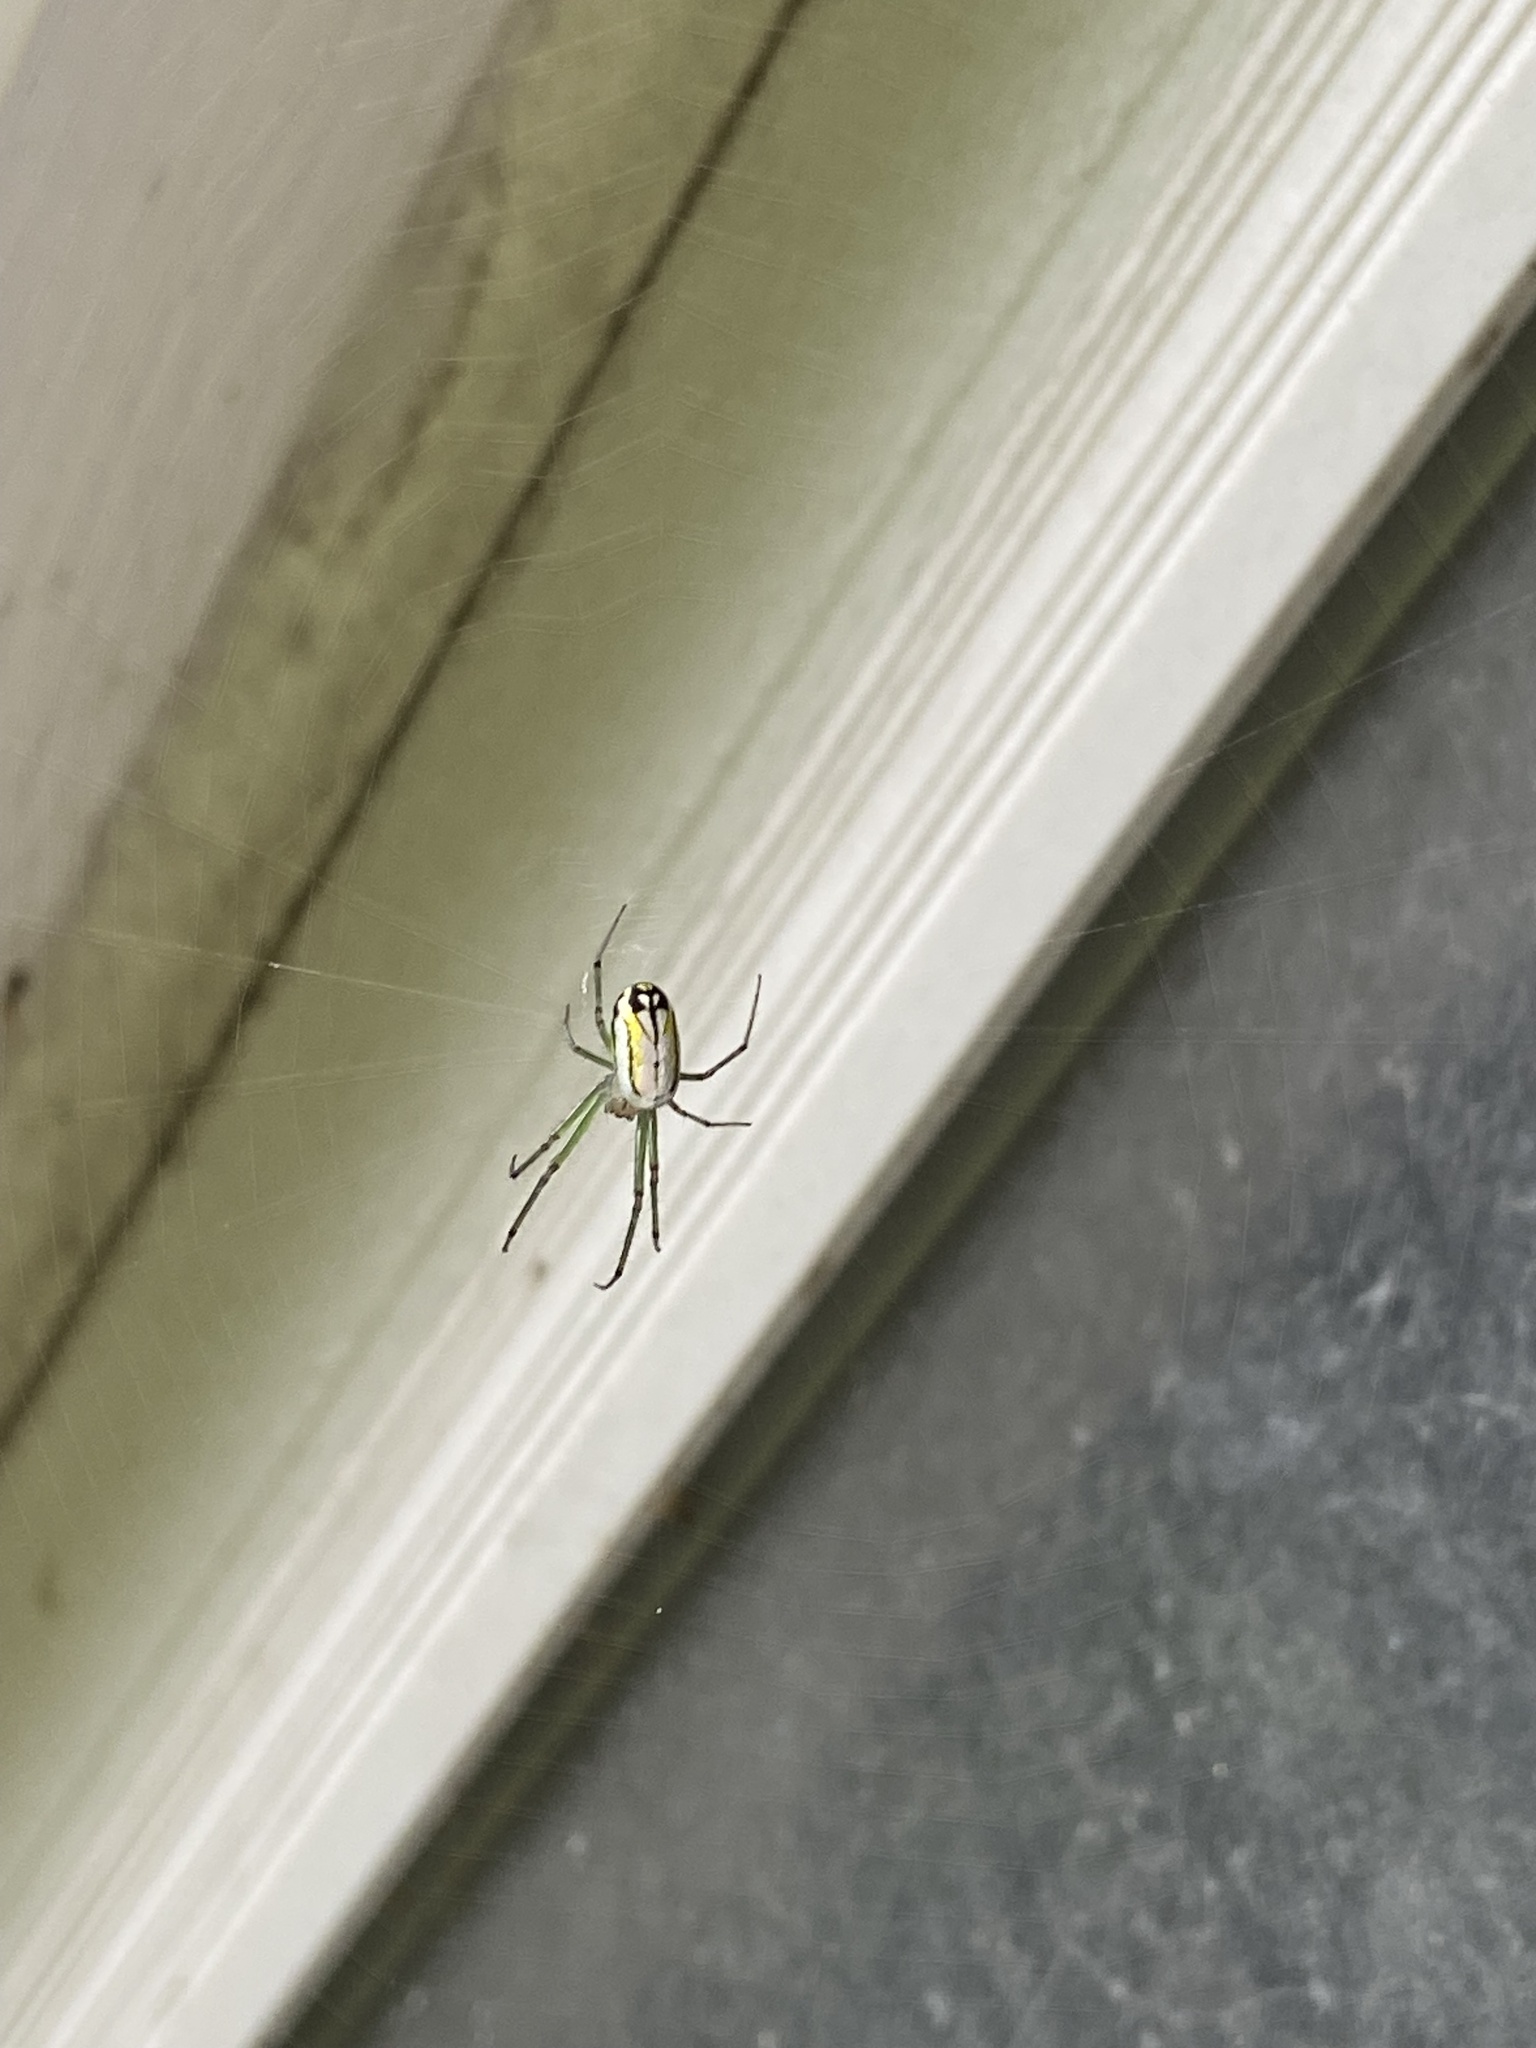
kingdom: Animalia
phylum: Arthropoda
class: Arachnida
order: Araneae
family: Tetragnathidae
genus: Leucauge
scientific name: Leucauge venusta
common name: Longjawed orb weavers
